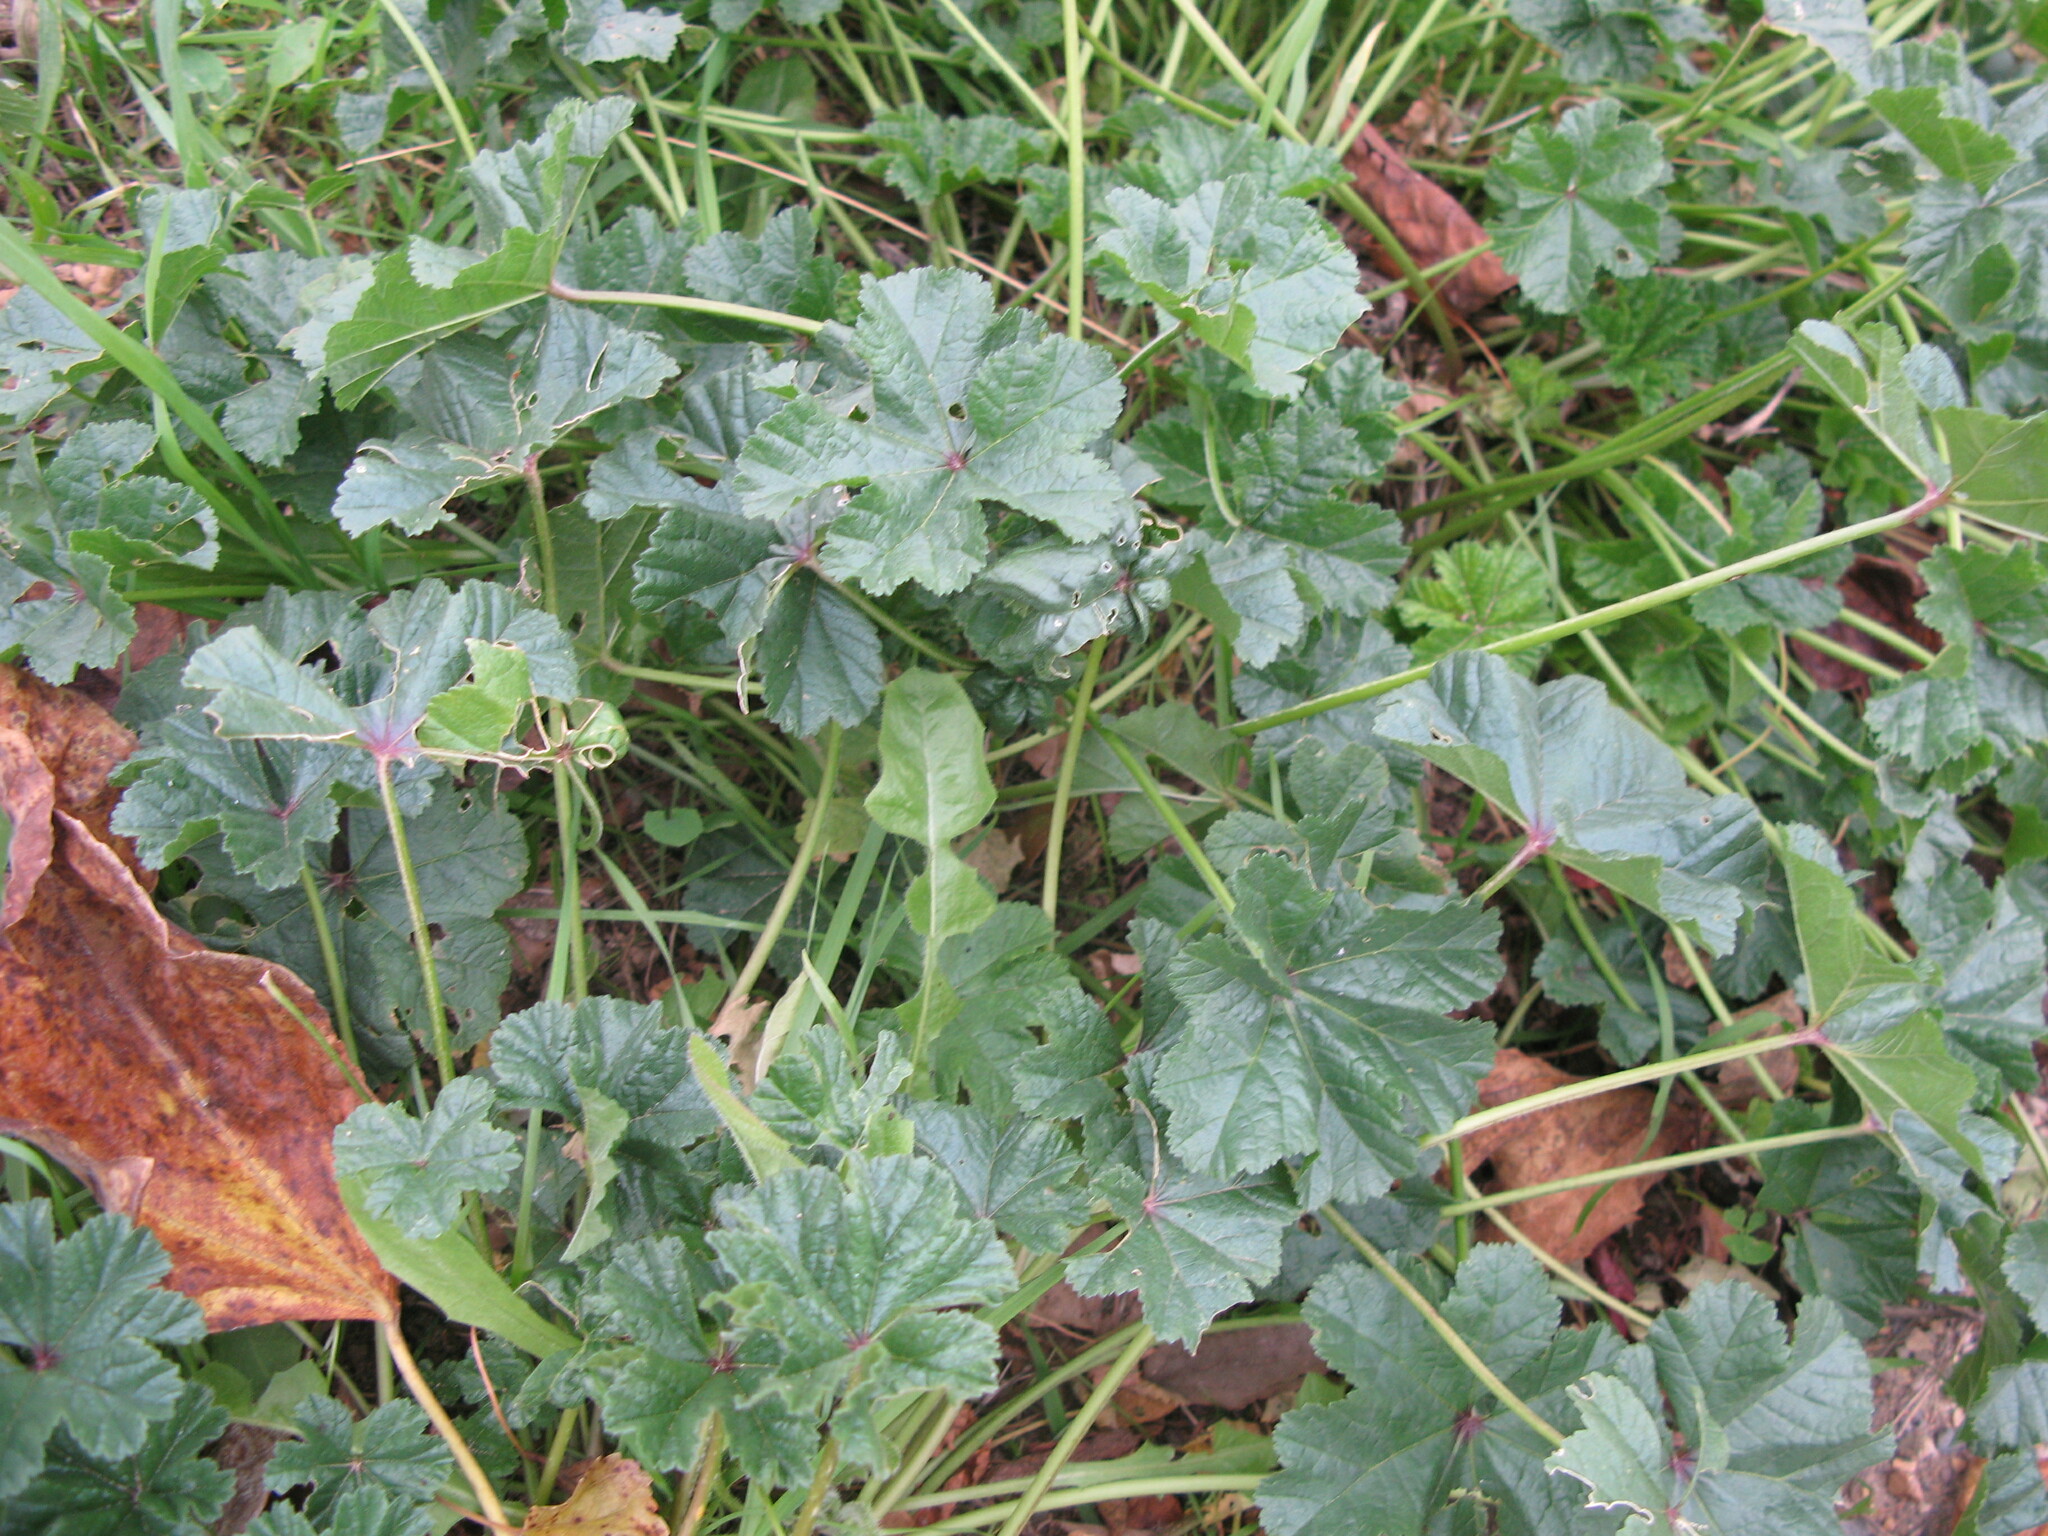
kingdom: Plantae
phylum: Tracheophyta
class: Magnoliopsida
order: Malvales
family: Malvaceae
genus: Malva
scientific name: Malva sylvestris
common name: Common mallow
